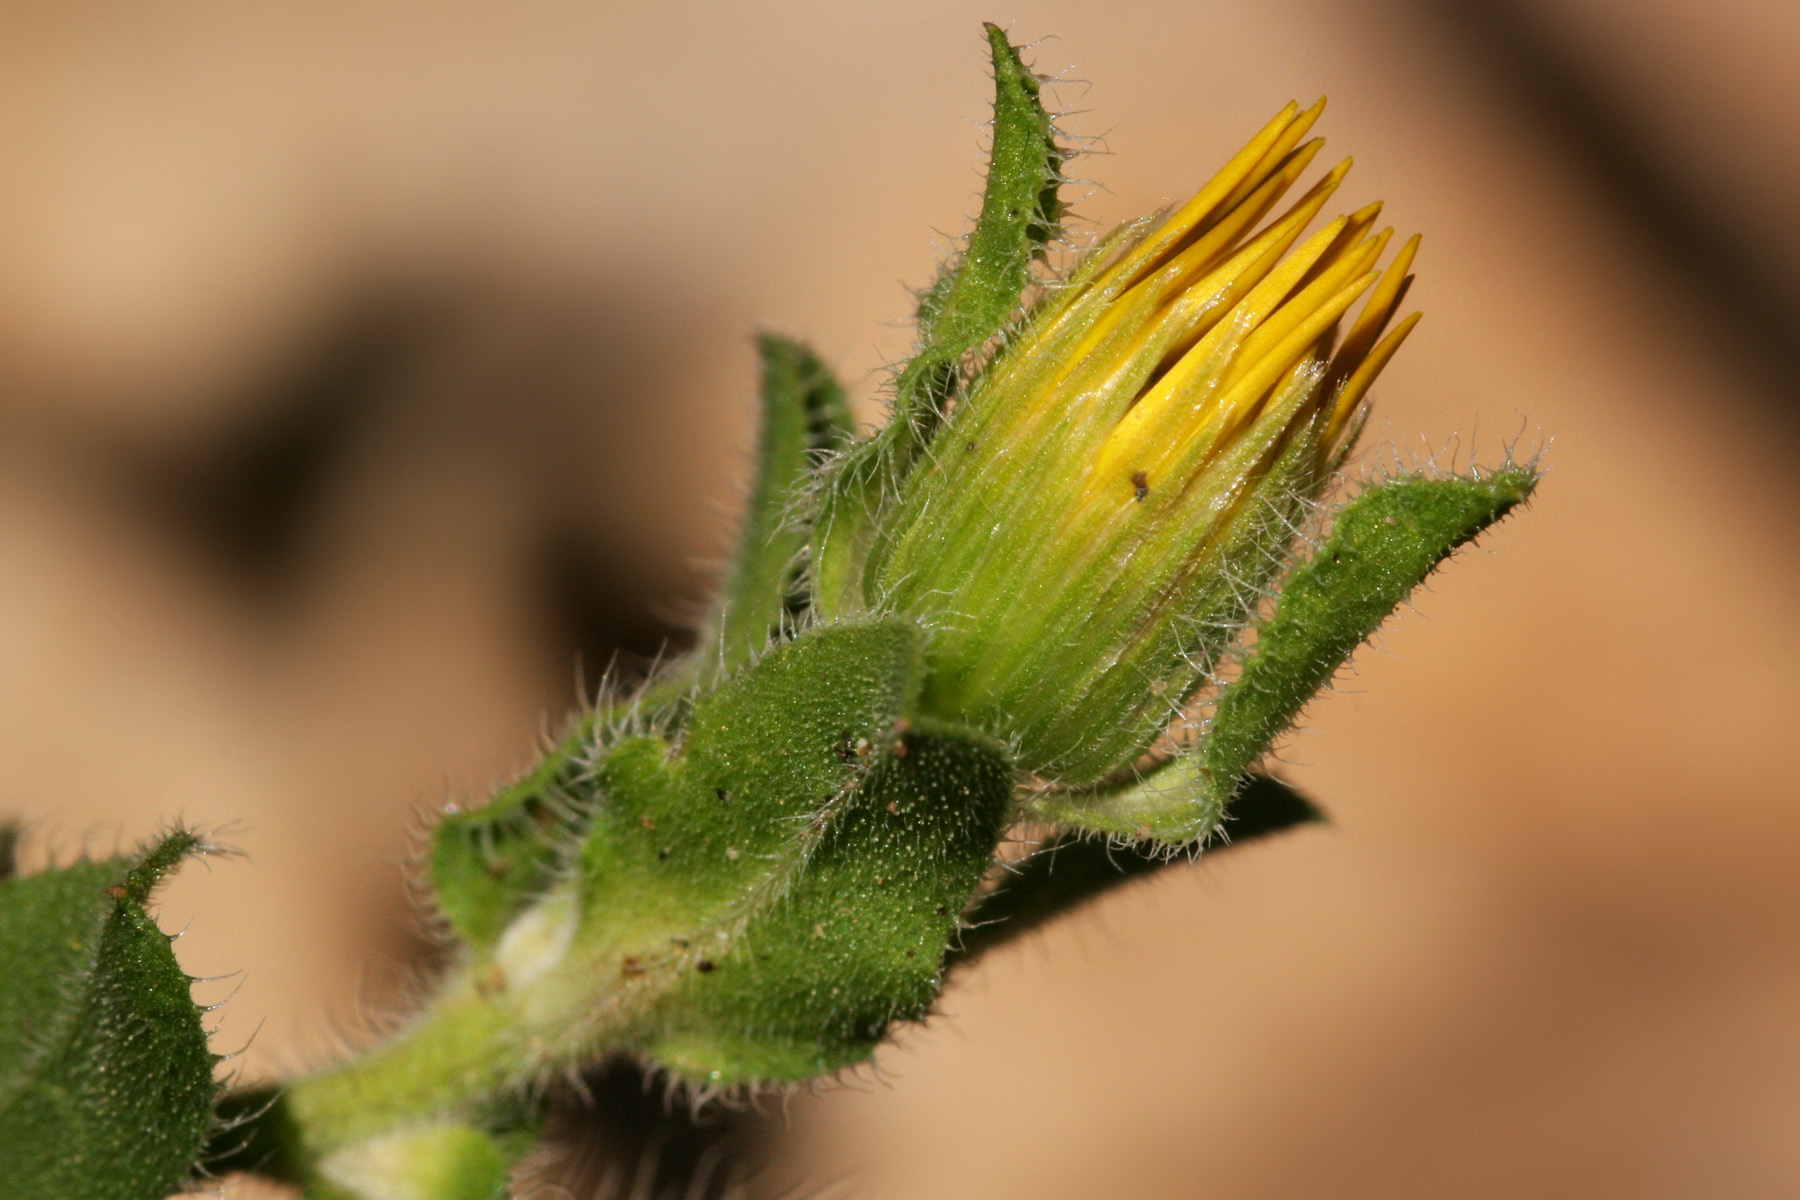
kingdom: Plantae
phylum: Tracheophyta
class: Magnoliopsida
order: Asterales
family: Asteraceae
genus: Heterotheca
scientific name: Heterotheca fulcrata
